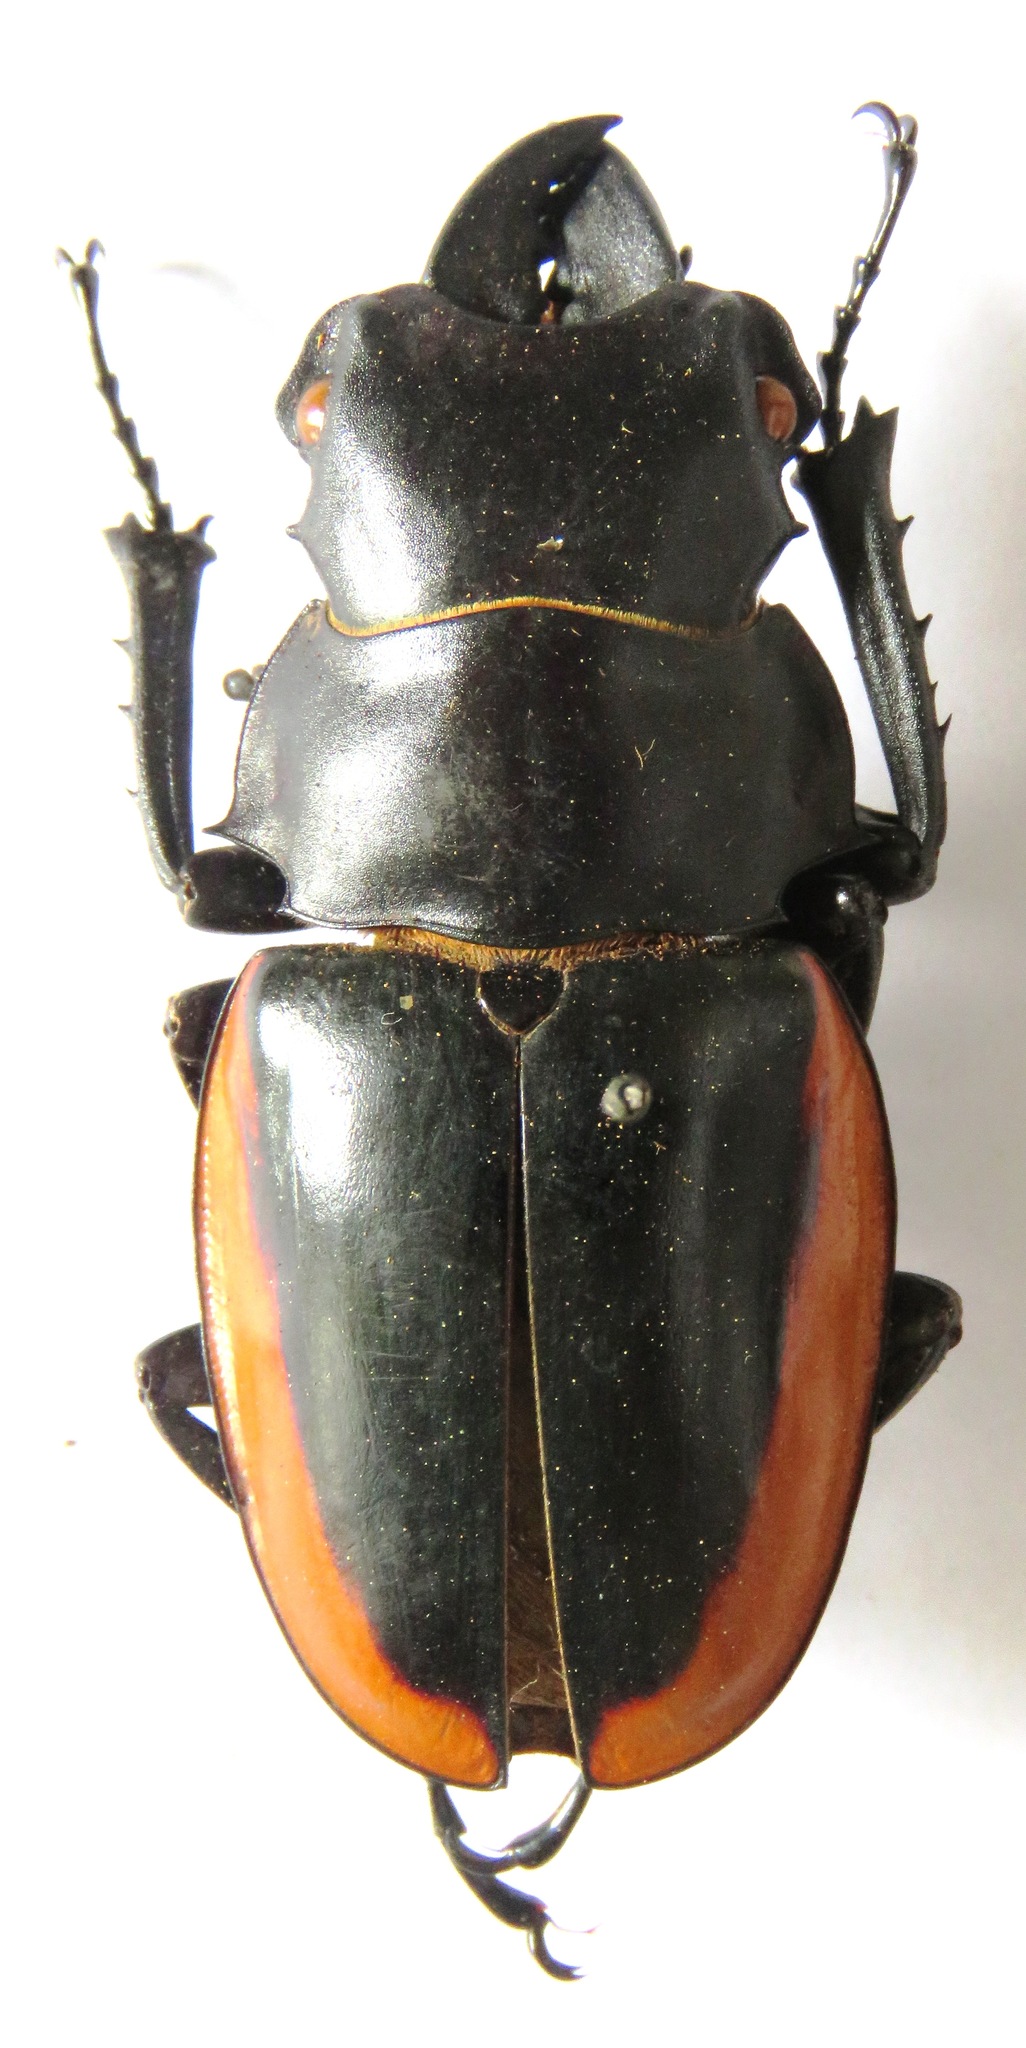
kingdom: Animalia
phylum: Arthropoda
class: Insecta
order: Coleoptera
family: Lucanidae
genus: Odontolabis
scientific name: Odontolabis cuvera
